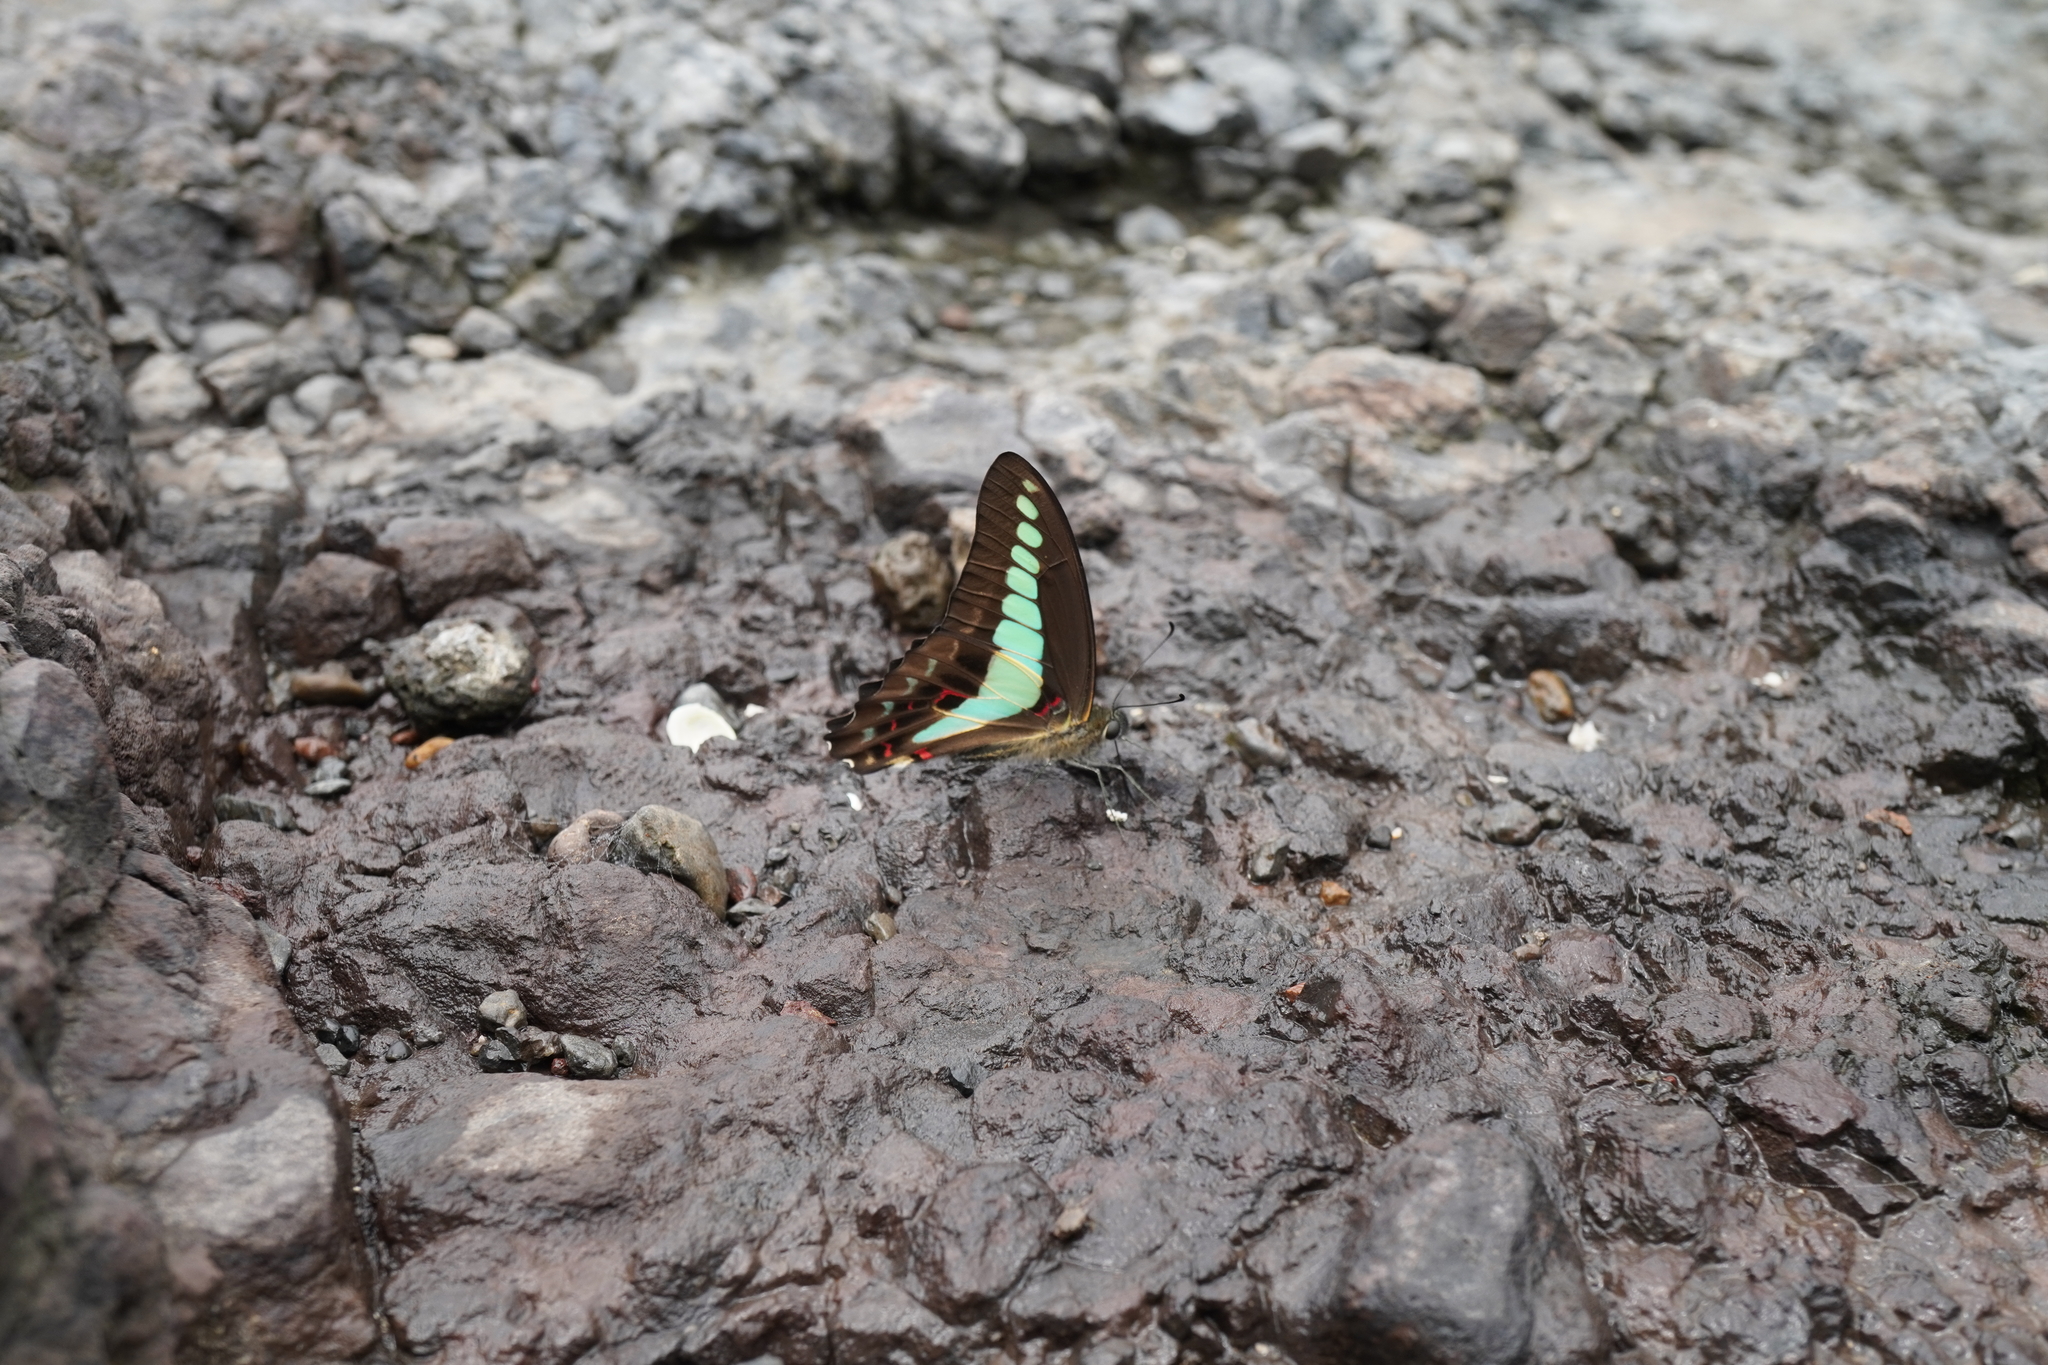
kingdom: Fungi
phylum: Ascomycota
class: Sordariomycetes
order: Microascales
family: Microascaceae
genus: Graphium
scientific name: Graphium sarpedon
